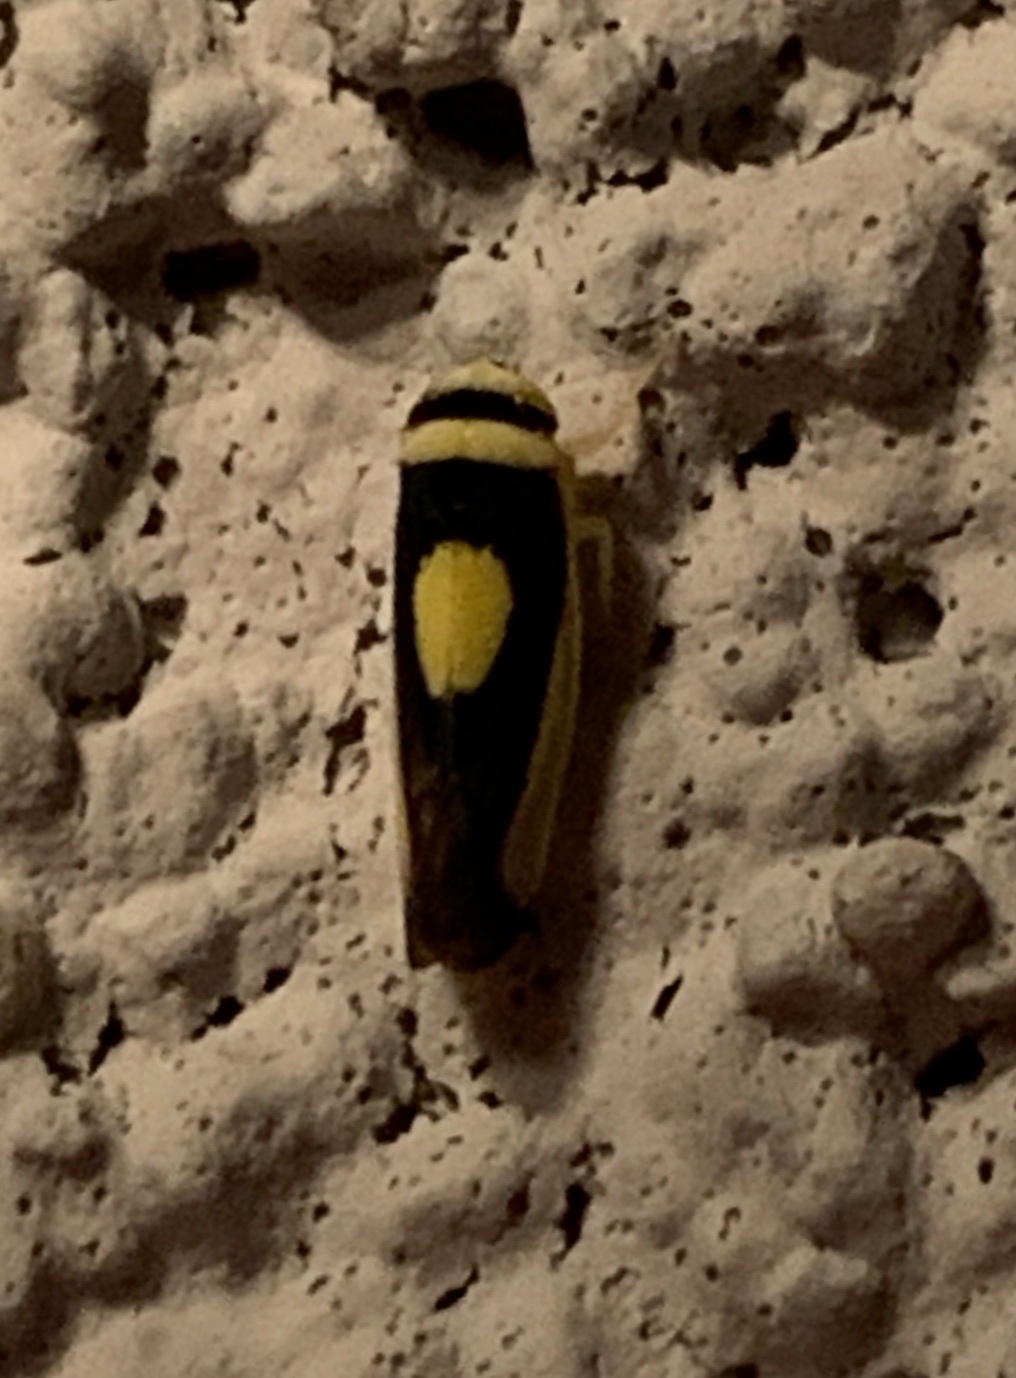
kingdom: Animalia
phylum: Arthropoda
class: Insecta
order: Hemiptera
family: Cicadellidae
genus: Colladonus
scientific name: Colladonus clitellarius
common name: The saddleback leafhopper
